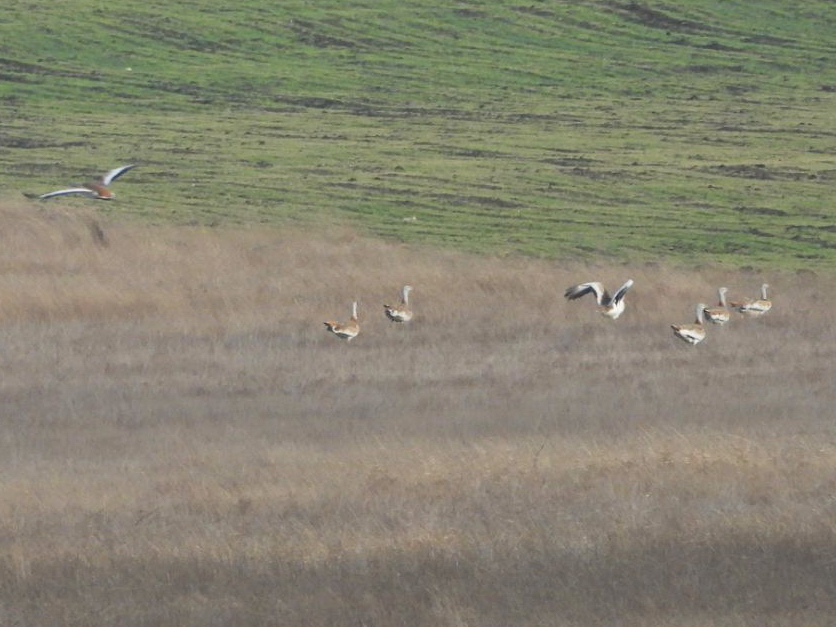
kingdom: Animalia
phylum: Chordata
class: Aves
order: Otidiformes
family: Otididae
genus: Otis
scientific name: Otis tarda
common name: Great bustard
